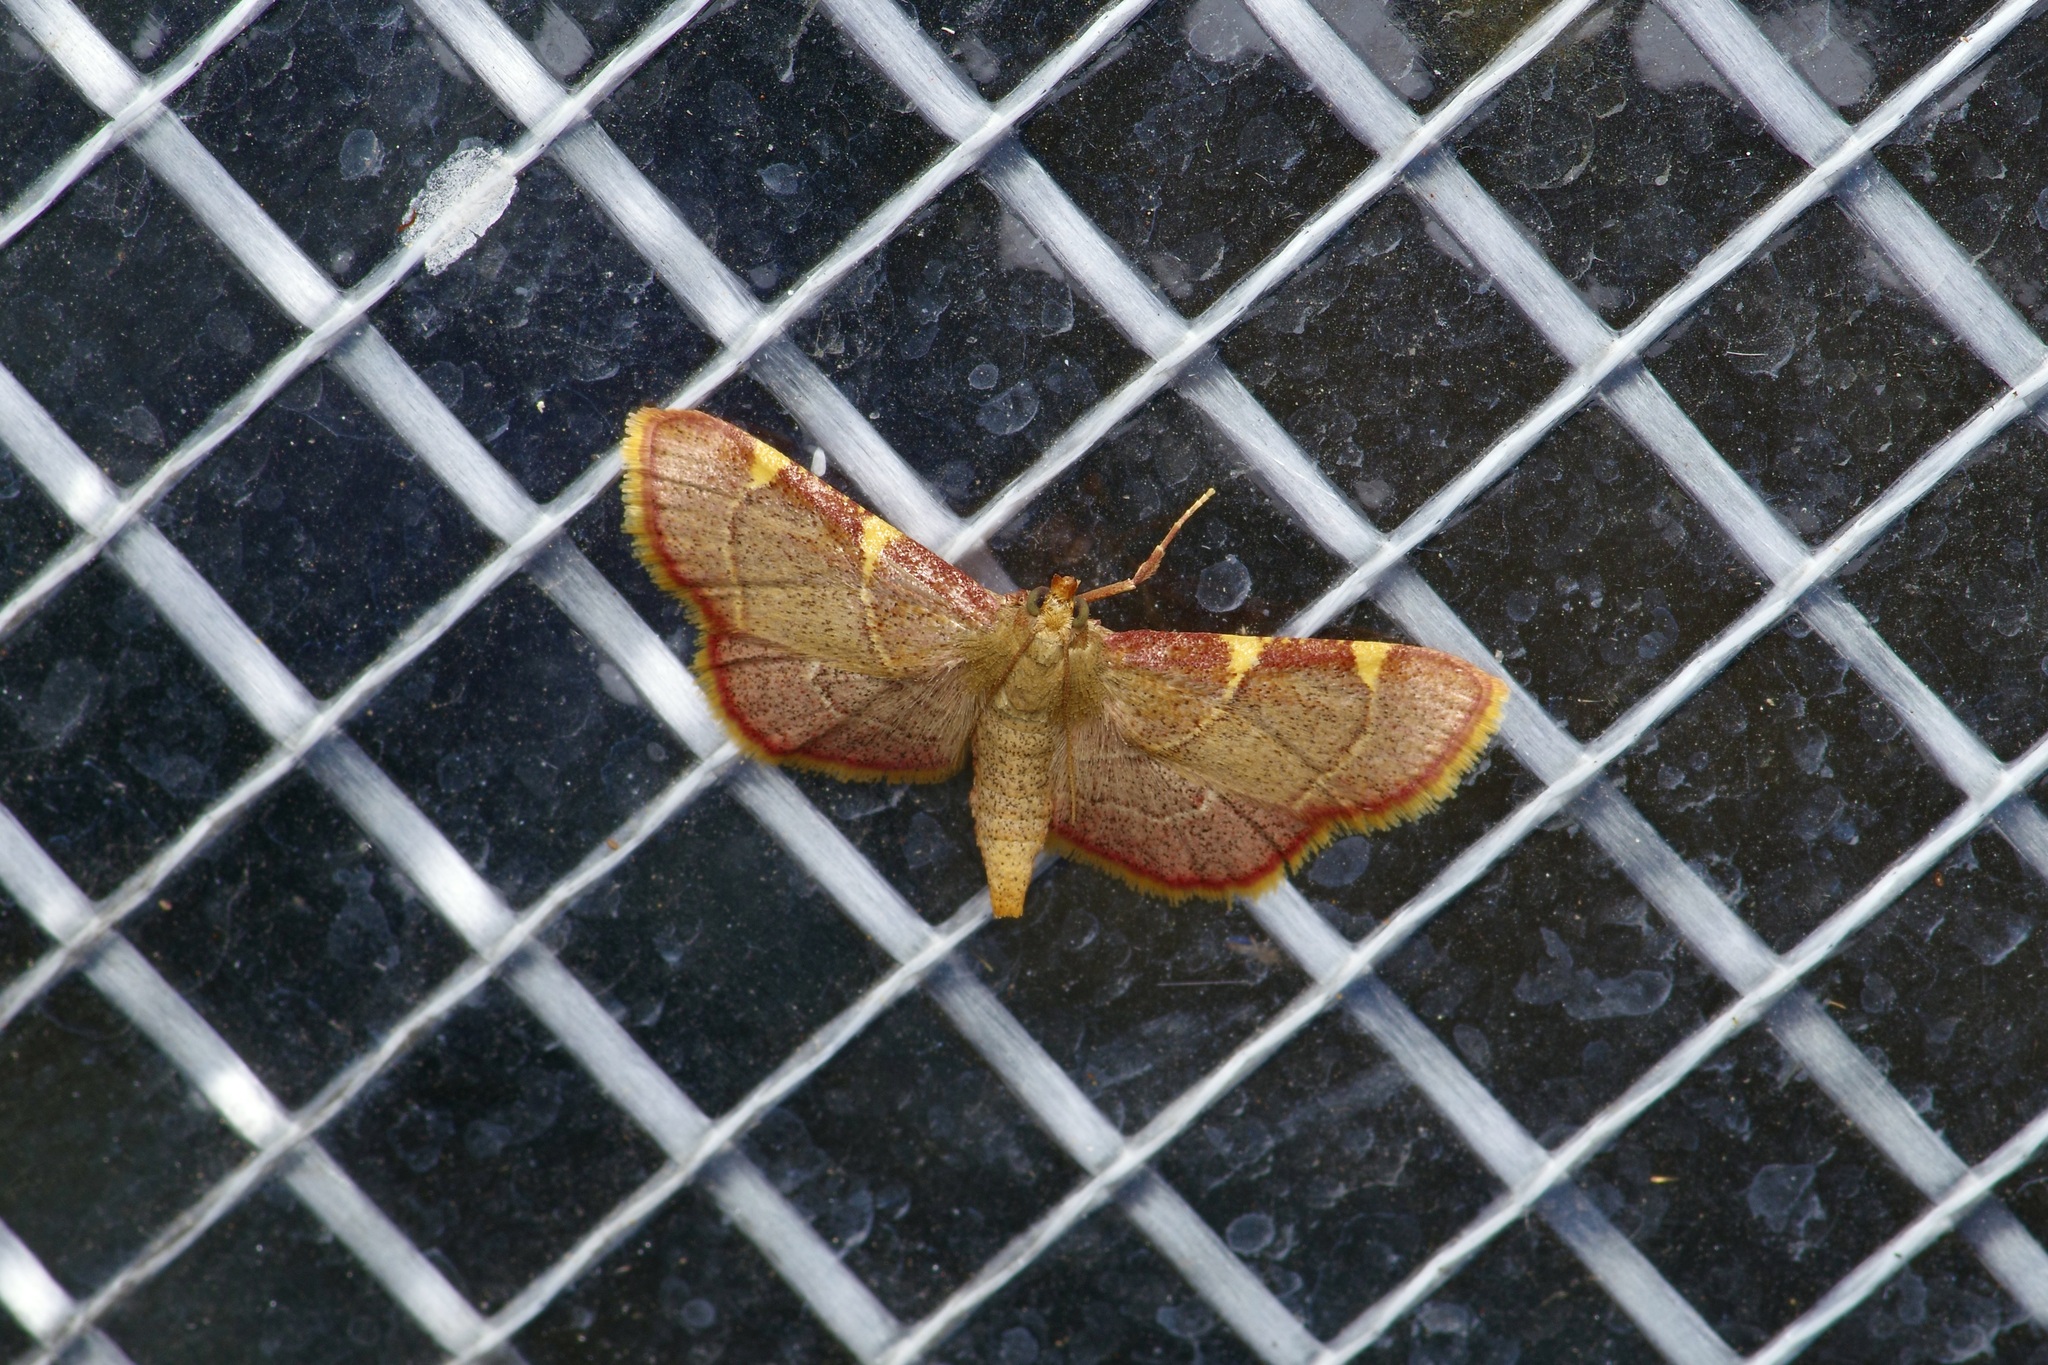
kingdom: Animalia
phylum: Arthropoda
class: Insecta
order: Lepidoptera
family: Pyralidae
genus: Hypsopygia
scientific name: Hypsopygia olinalis
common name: Yellow-fringed dolichomia moth
